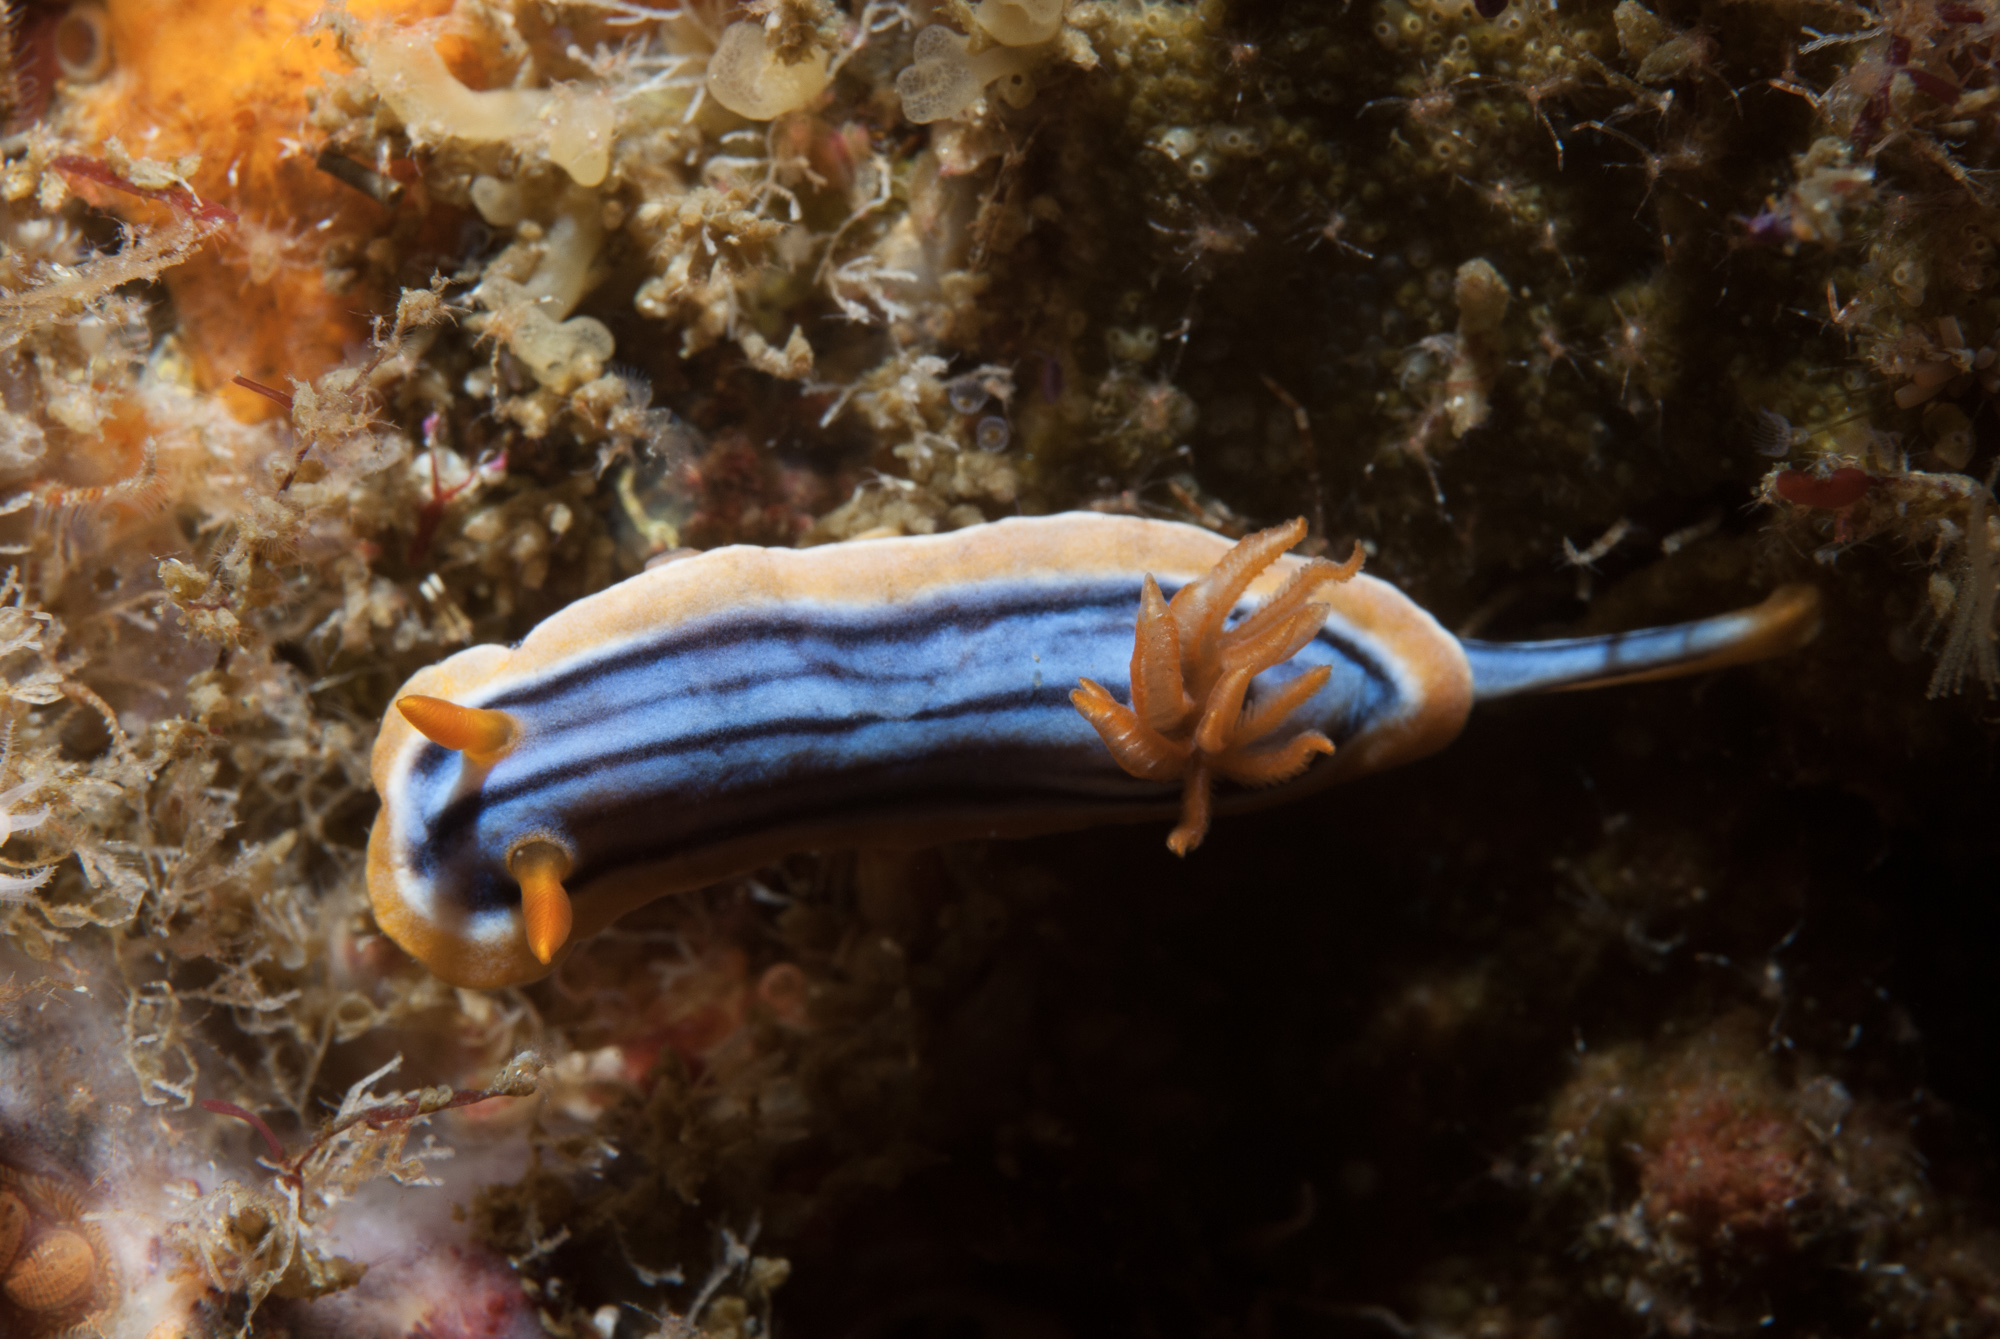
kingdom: Animalia
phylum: Mollusca
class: Gastropoda
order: Nudibranchia
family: Chromodorididae
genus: Chromodoris
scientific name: Chromodoris hamiltoni
